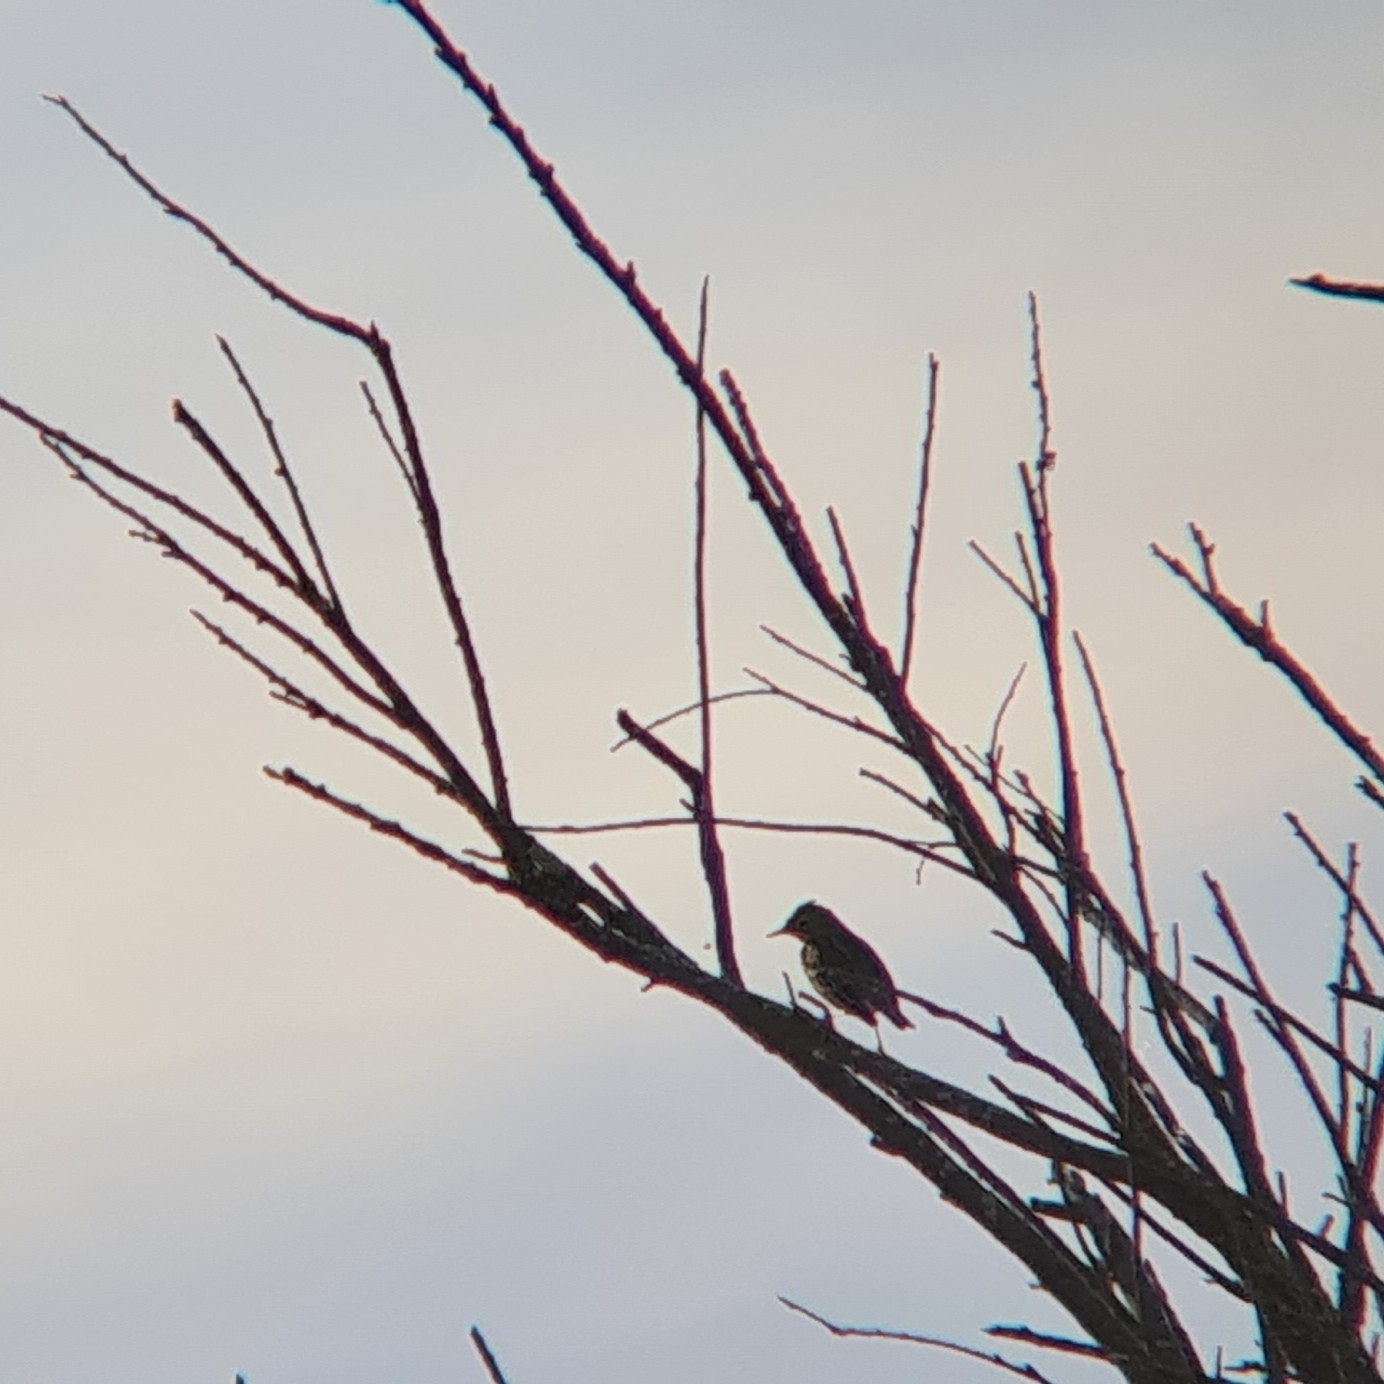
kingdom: Animalia
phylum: Chordata
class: Aves
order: Passeriformes
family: Motacillidae
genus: Anthus
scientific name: Anthus pratensis
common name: Meadow pipit
